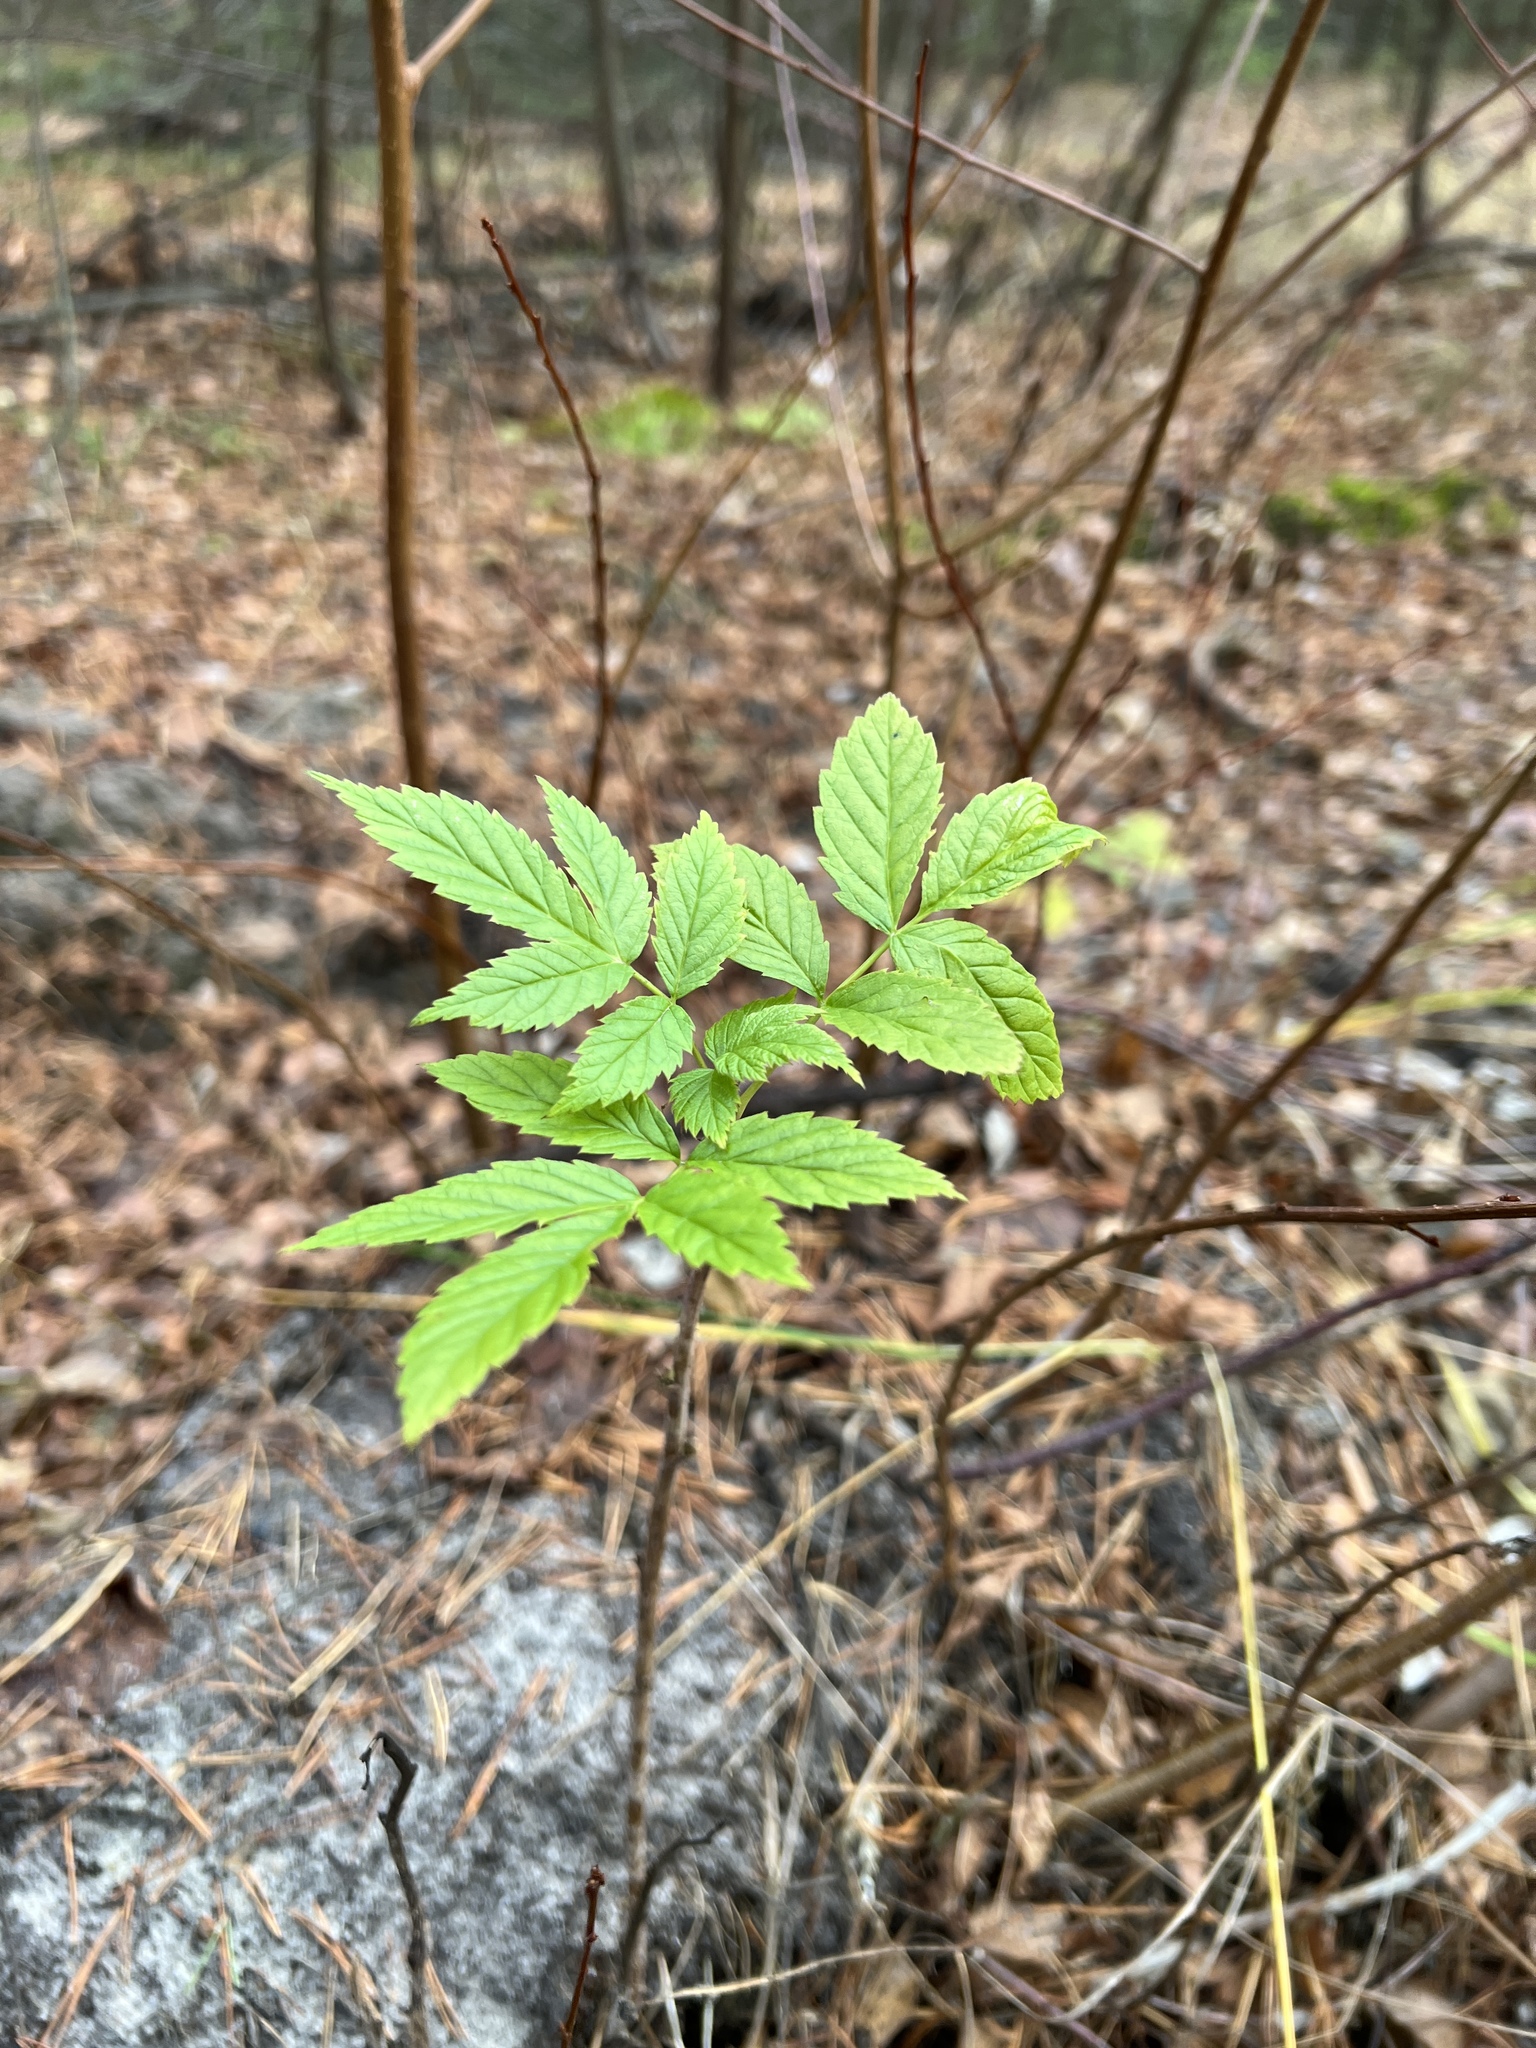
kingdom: Plantae
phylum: Tracheophyta
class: Magnoliopsida
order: Rosales
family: Rosaceae
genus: Rubus
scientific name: Rubus idaeus
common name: Raspberry
